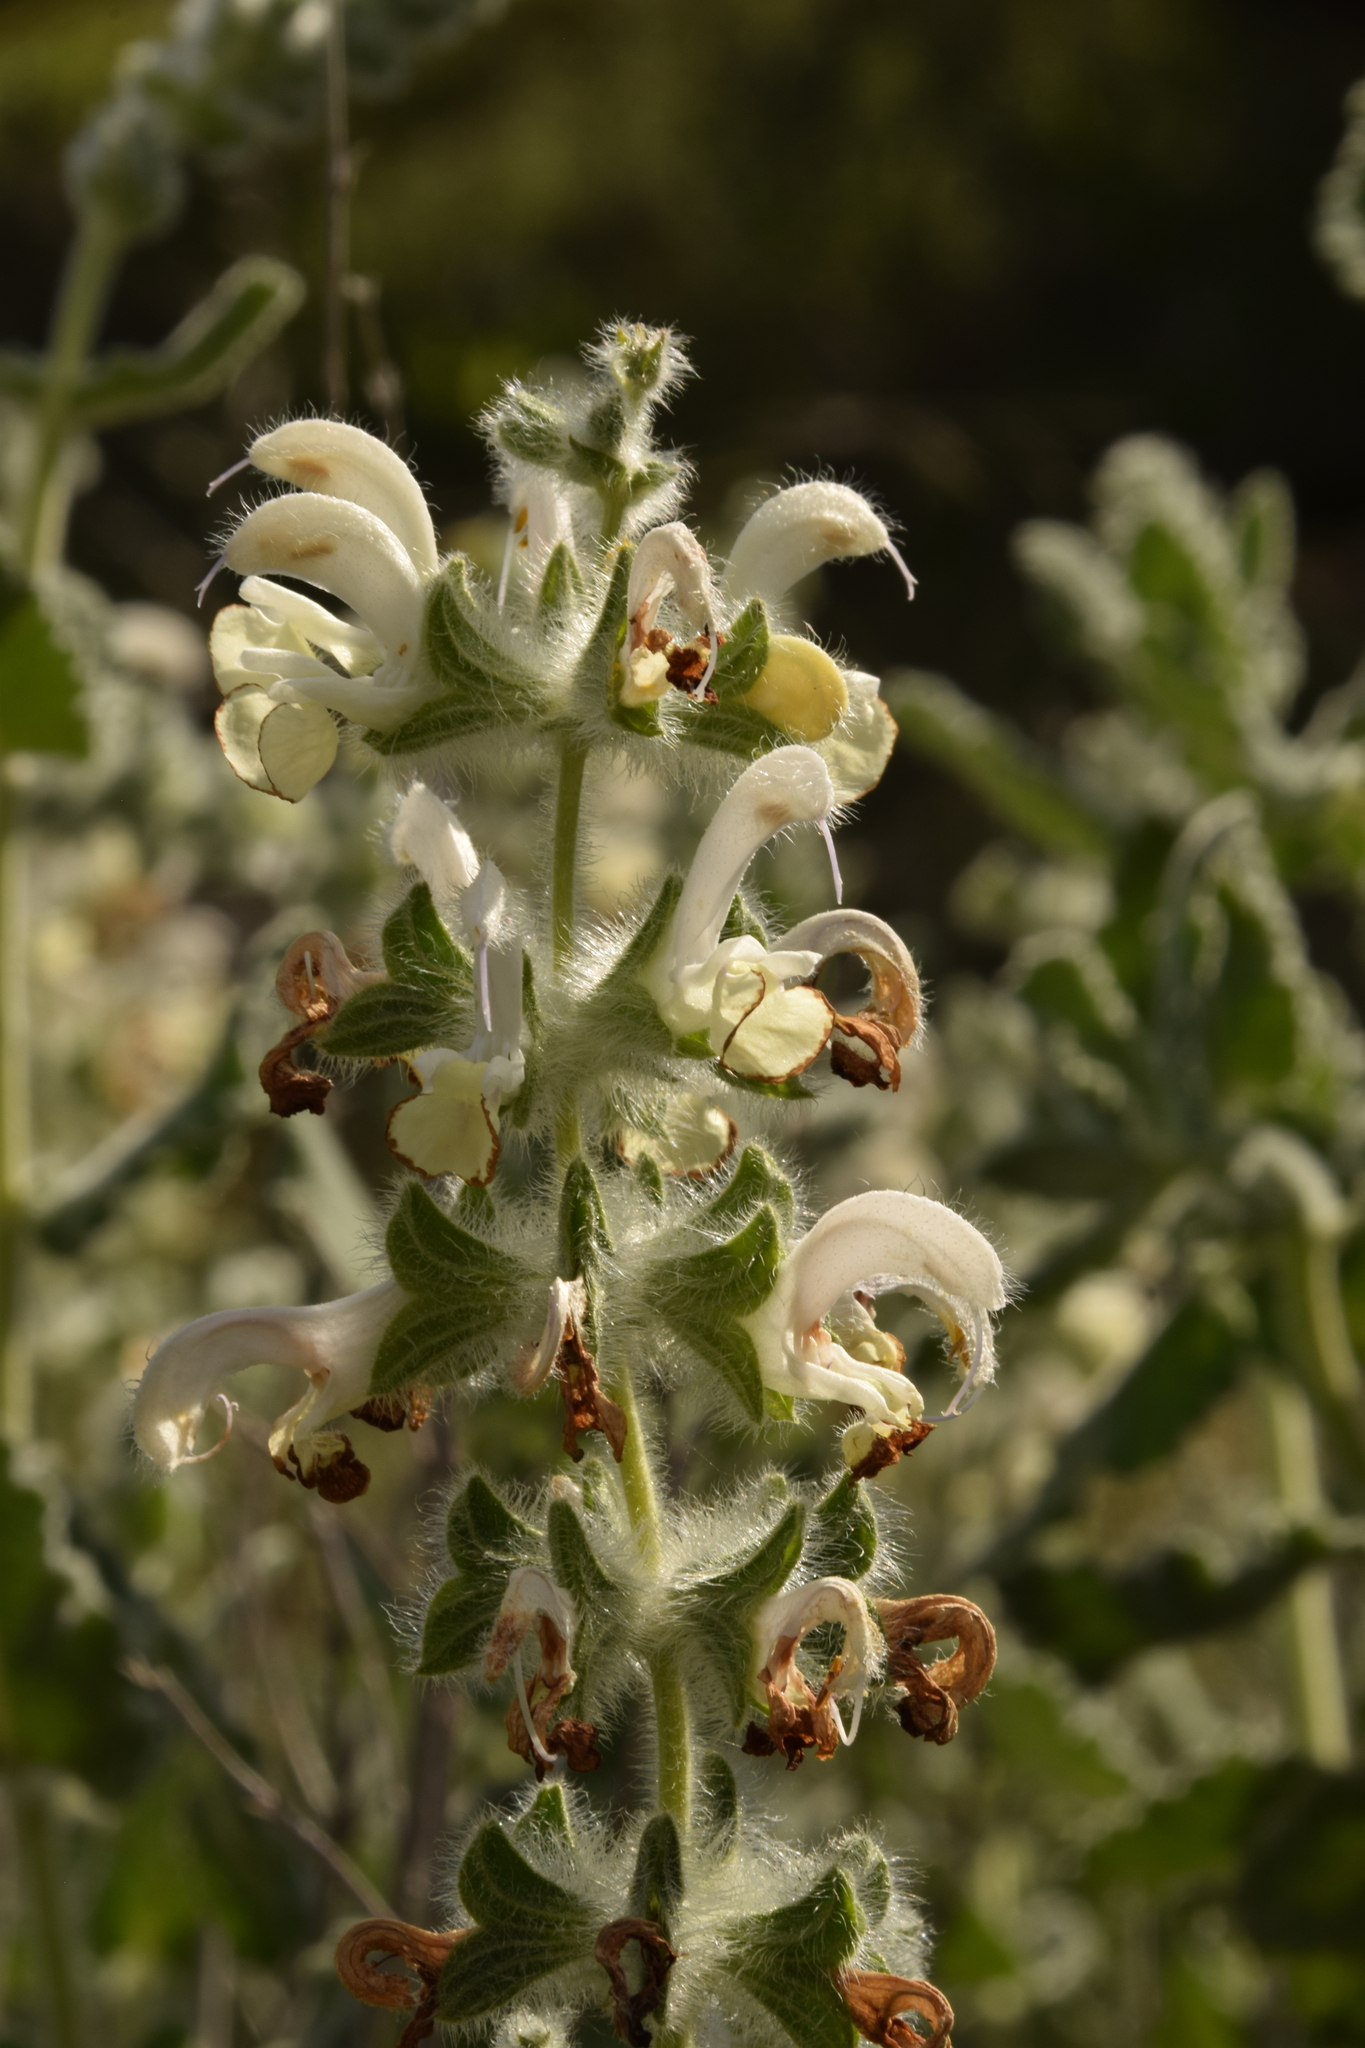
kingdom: Plantae
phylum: Tracheophyta
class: Magnoliopsida
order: Lamiales
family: Lamiaceae
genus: Salvia
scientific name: Salvia dominica
